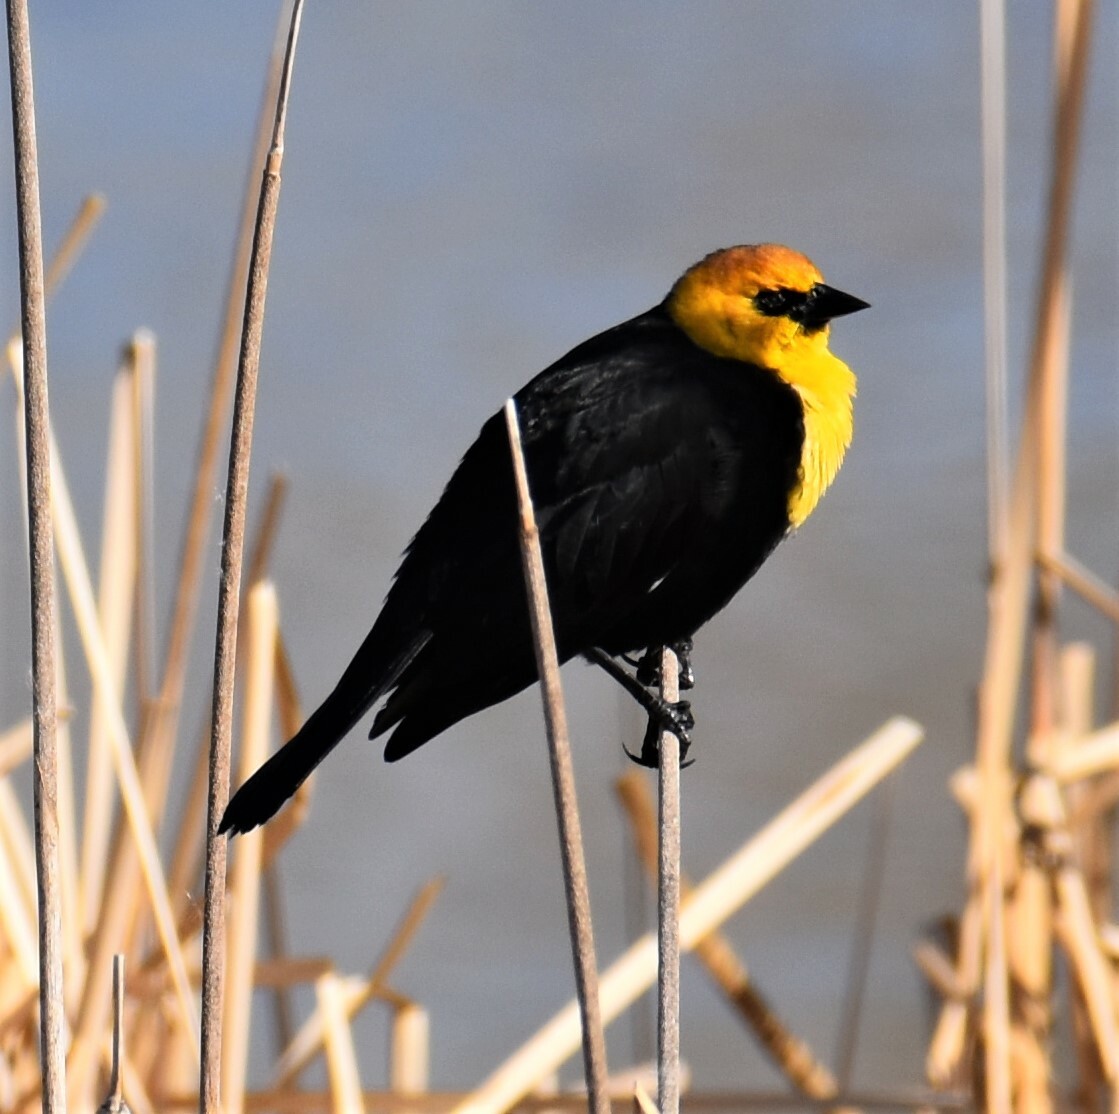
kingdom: Animalia
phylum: Chordata
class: Aves
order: Passeriformes
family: Icteridae
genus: Xanthocephalus
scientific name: Xanthocephalus xanthocephalus
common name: Yellow-headed blackbird
